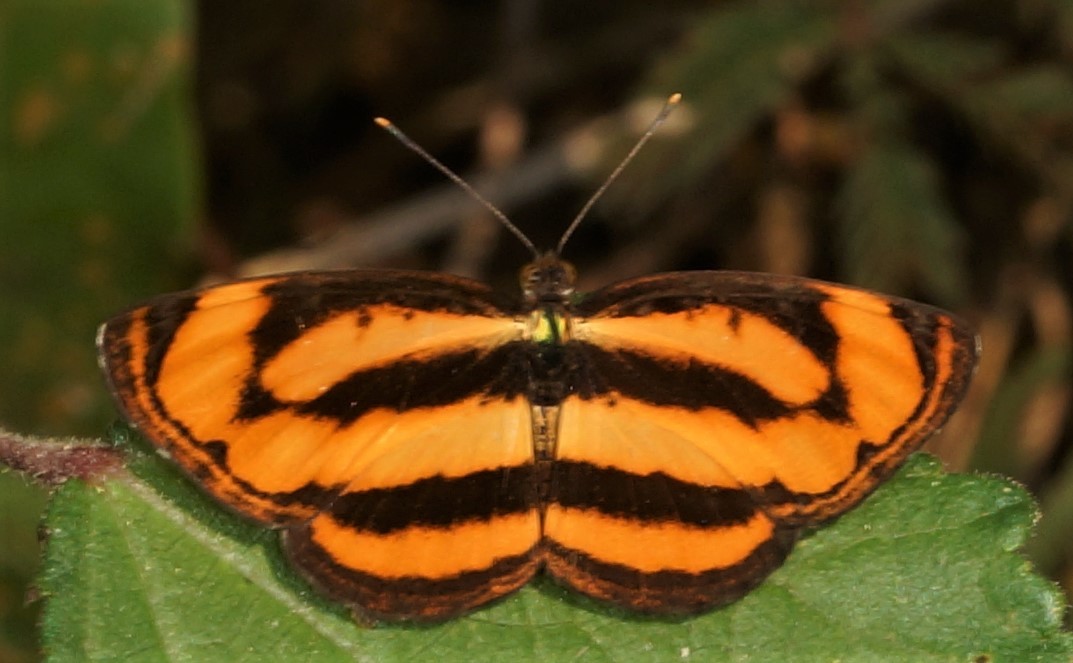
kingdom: Animalia
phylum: Arthropoda
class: Insecta
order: Lepidoptera
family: Nymphalidae
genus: Pantoporia
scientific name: Pantoporia paraka
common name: Perak lascar
